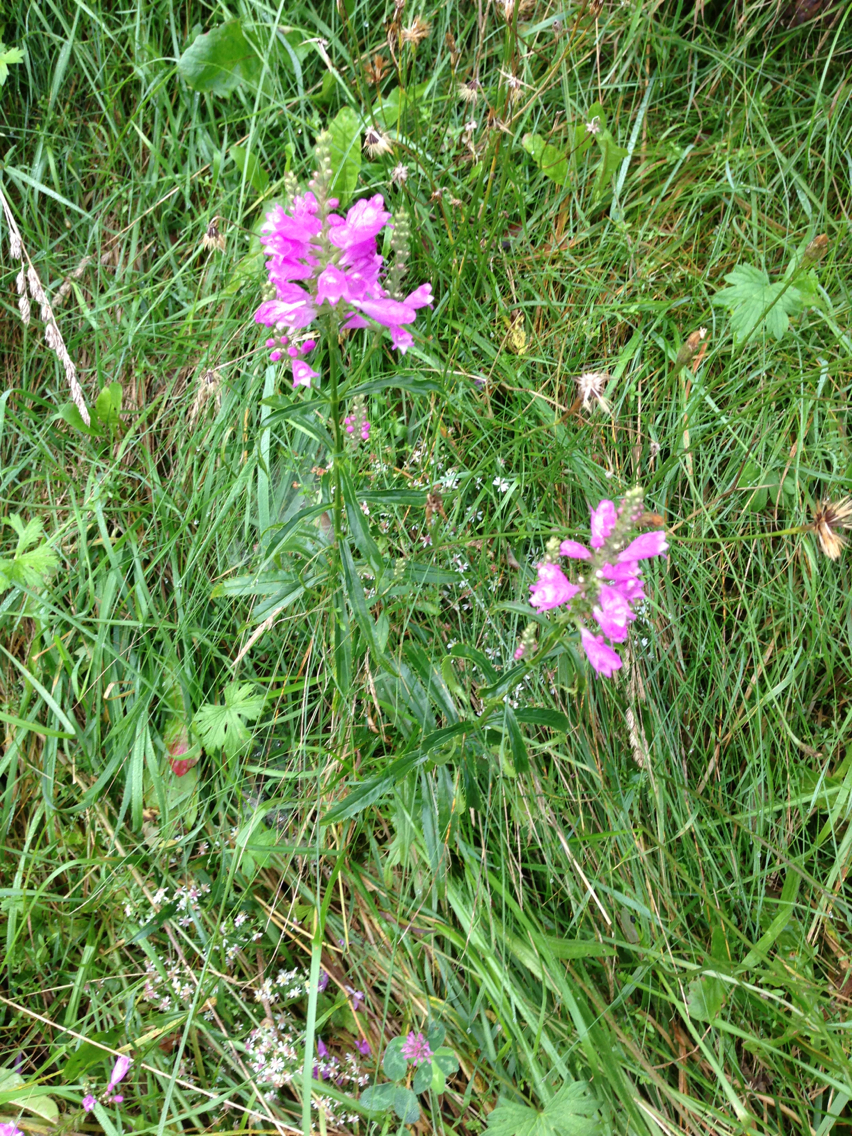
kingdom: Plantae
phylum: Tracheophyta
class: Magnoliopsida
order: Lamiales
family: Lamiaceae
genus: Physostegia
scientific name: Physostegia virginiana
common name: Obedient-plant
